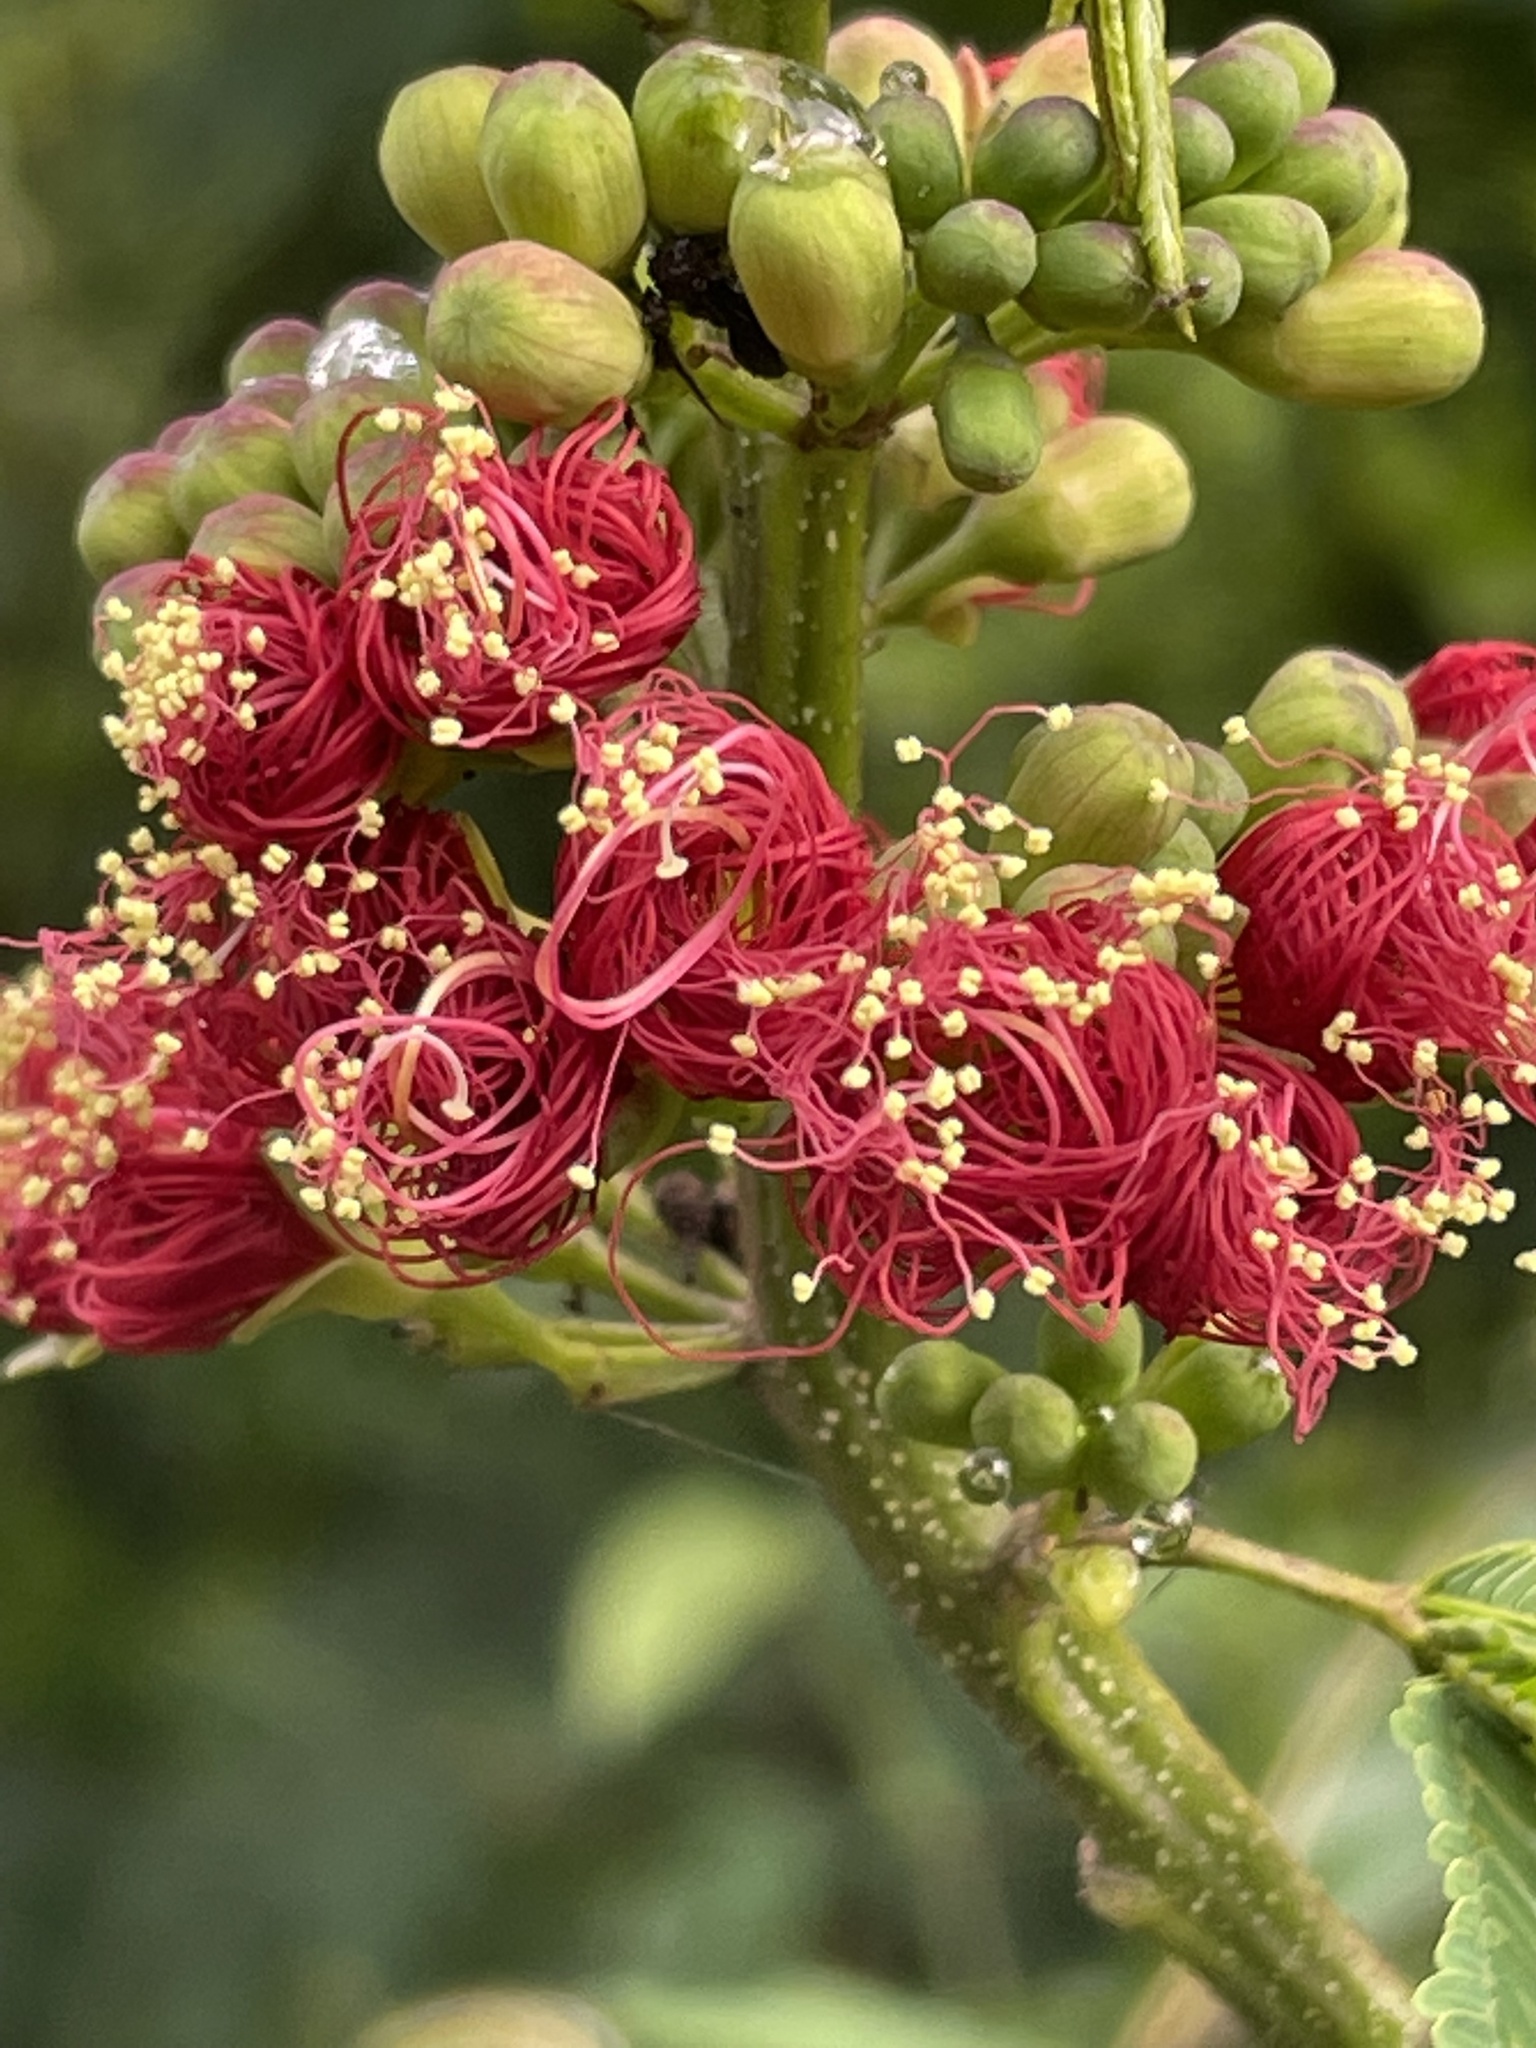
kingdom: Plantae
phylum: Tracheophyta
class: Magnoliopsida
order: Fabales
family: Fabaceae
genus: Calliandra
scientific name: Calliandra houstoniana
